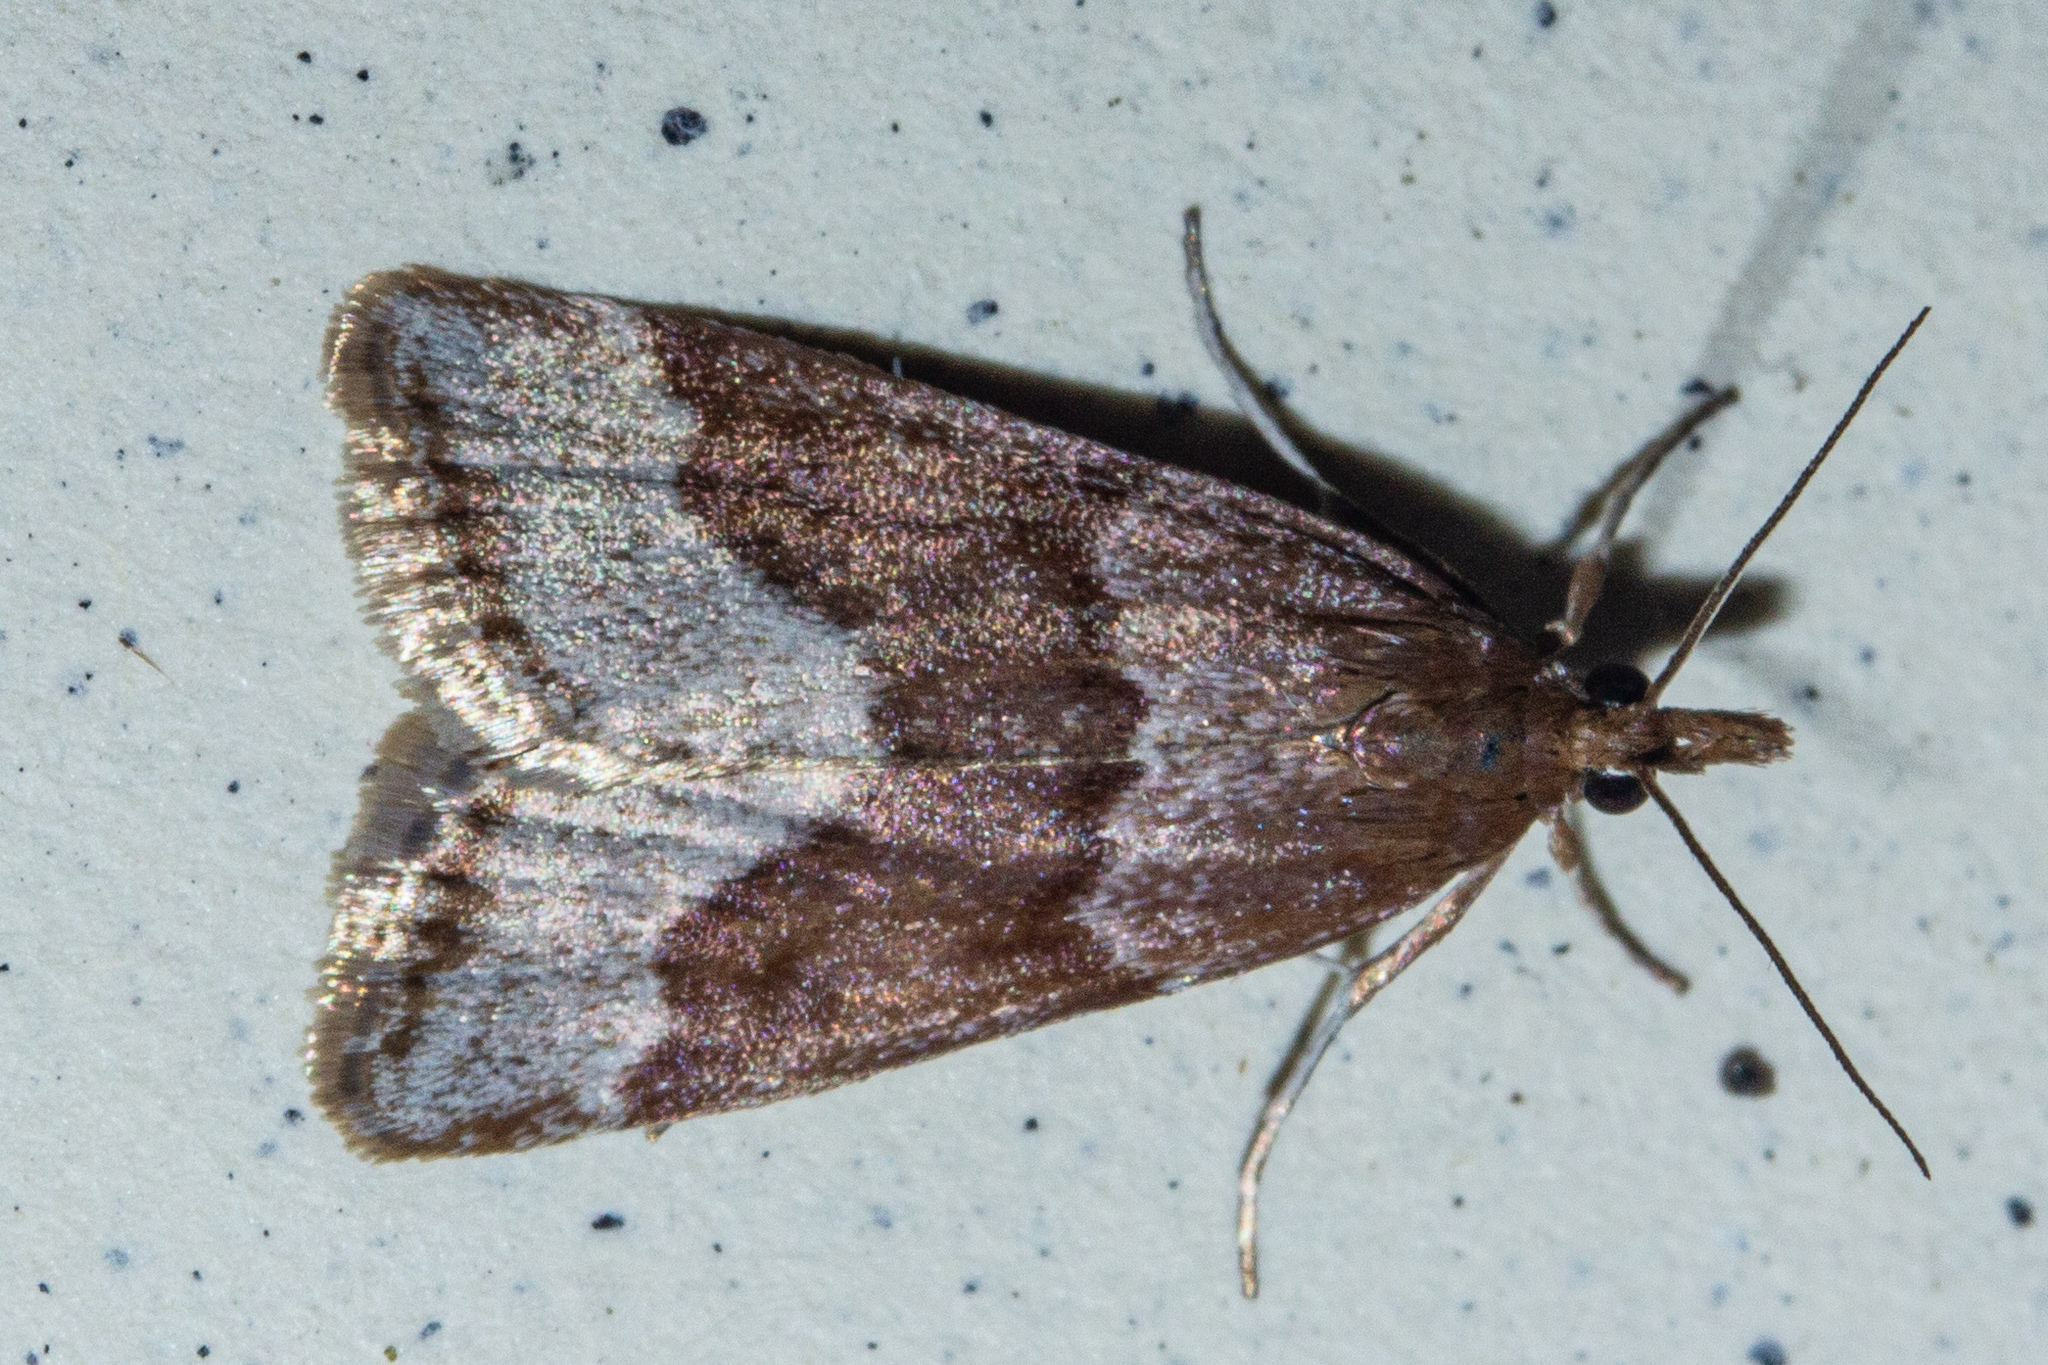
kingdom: Animalia
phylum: Arthropoda
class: Insecta
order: Lepidoptera
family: Crambidae
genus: Eudonia
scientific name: Eudonia feredayi
